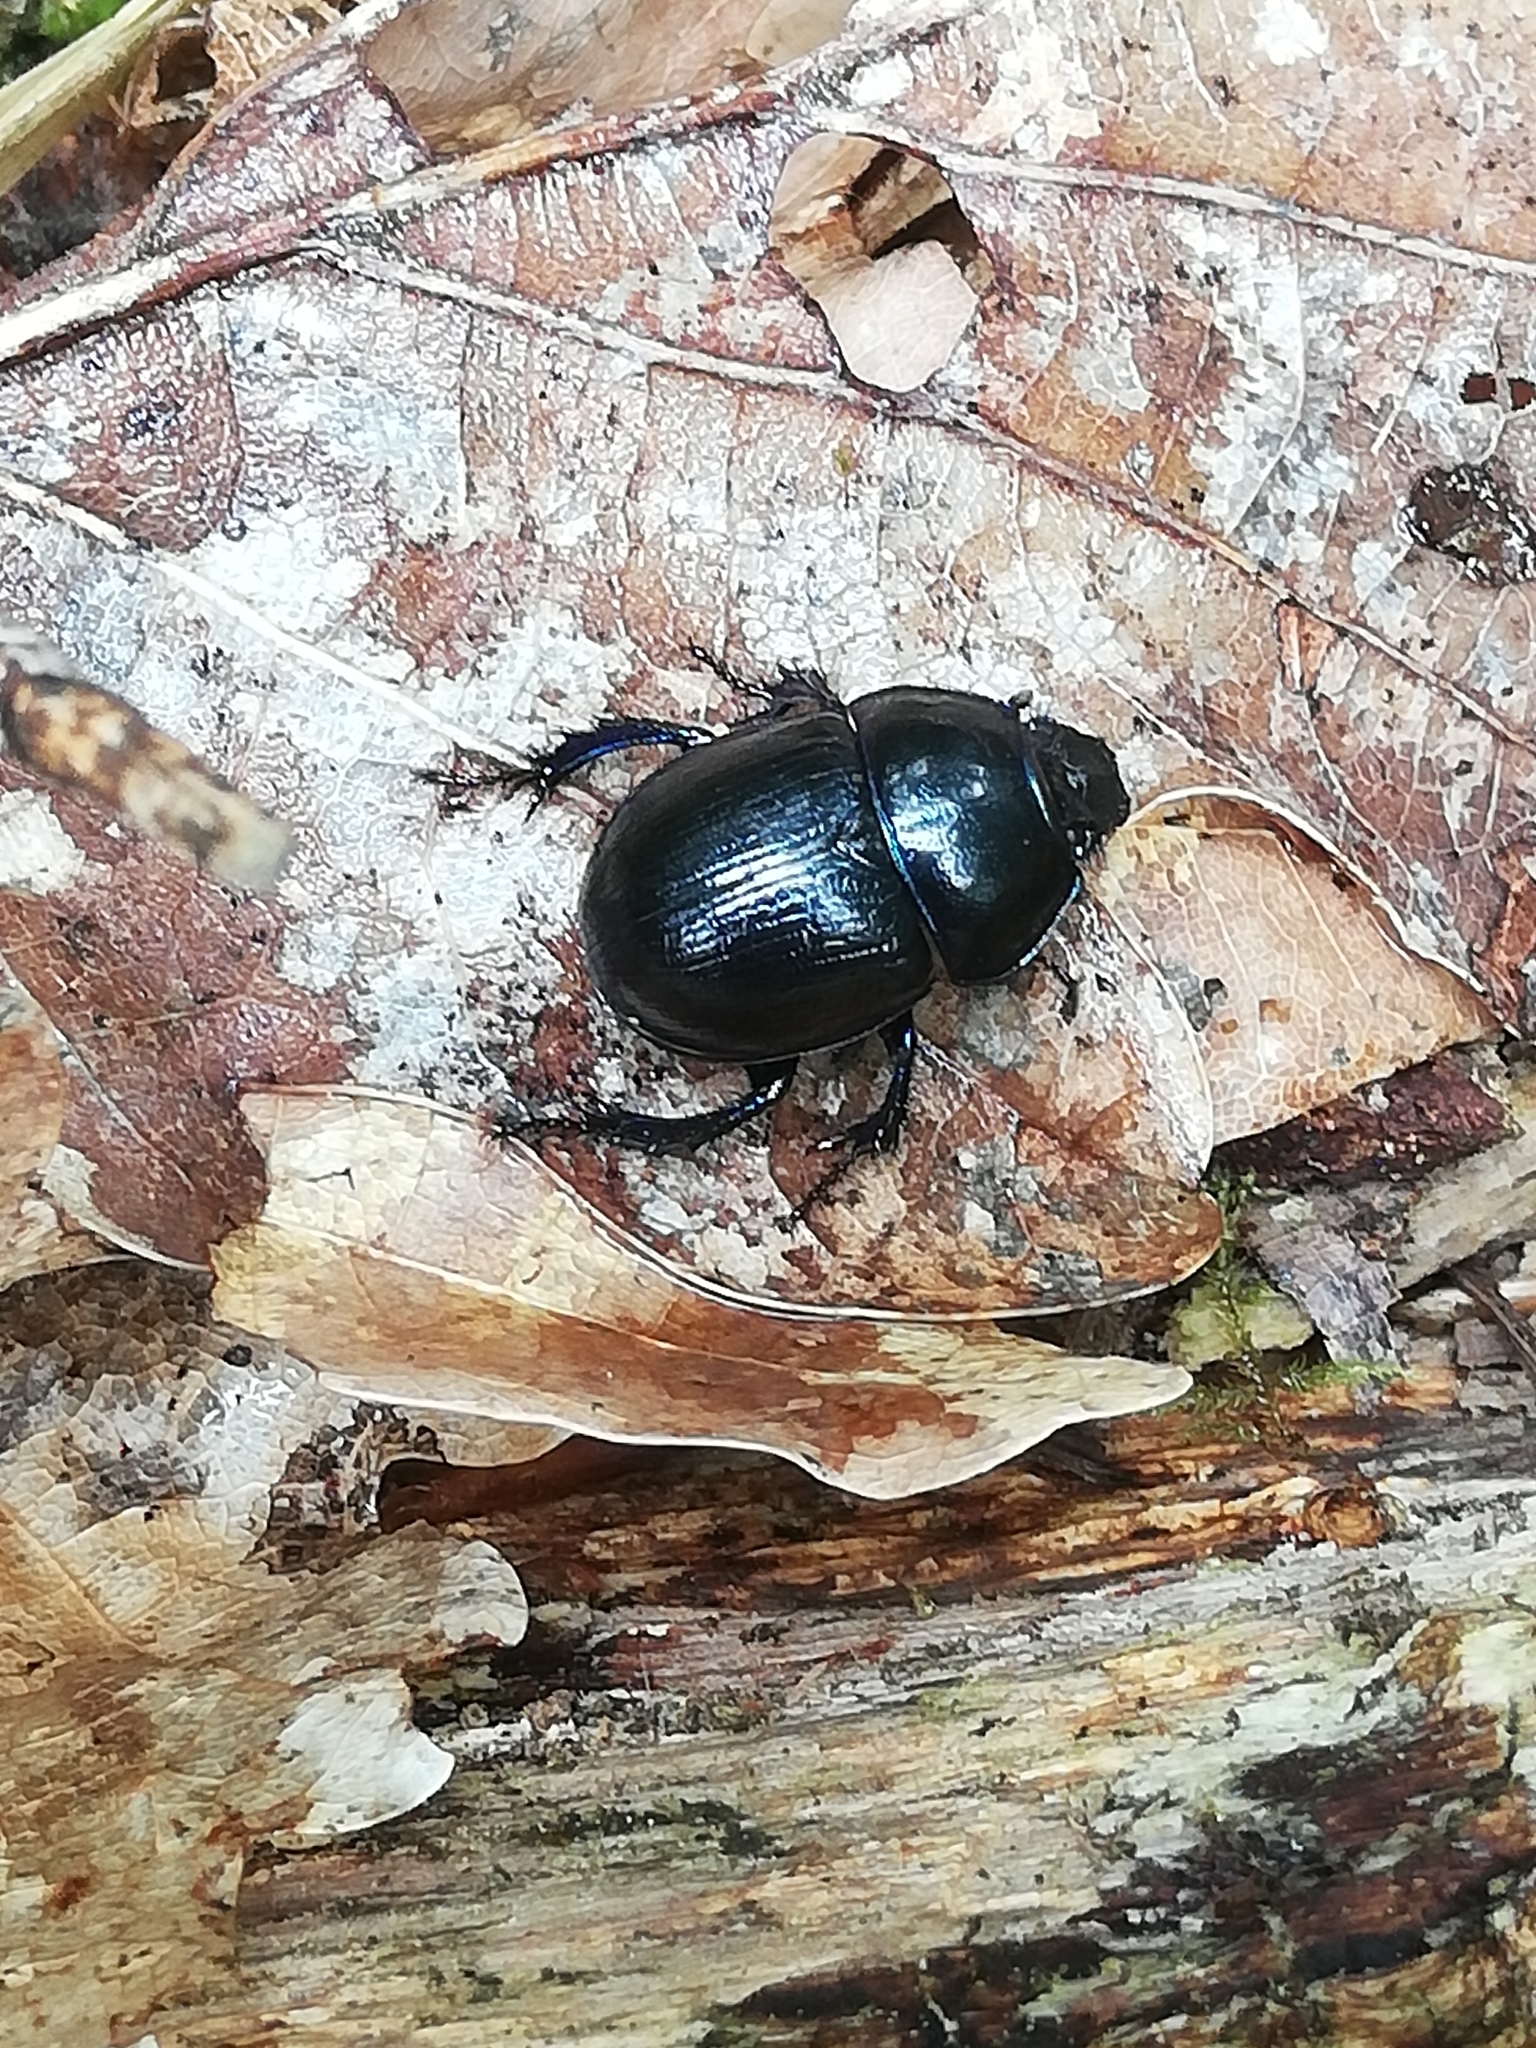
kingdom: Animalia
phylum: Arthropoda
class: Insecta
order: Coleoptera
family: Geotrupidae
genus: Anoplotrupes
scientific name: Anoplotrupes stercorosus
